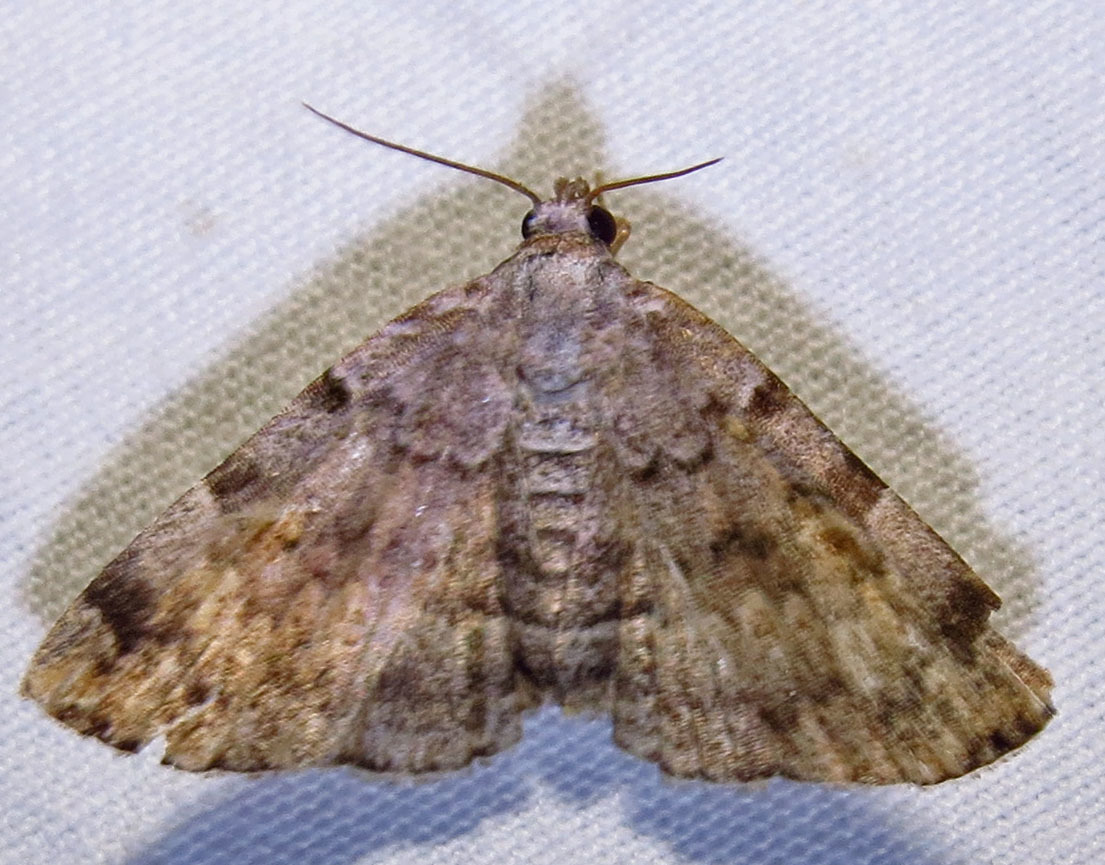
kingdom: Animalia
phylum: Arthropoda
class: Insecta
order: Lepidoptera
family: Erebidae
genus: Idia
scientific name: Idia americalis
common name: American idia moth
